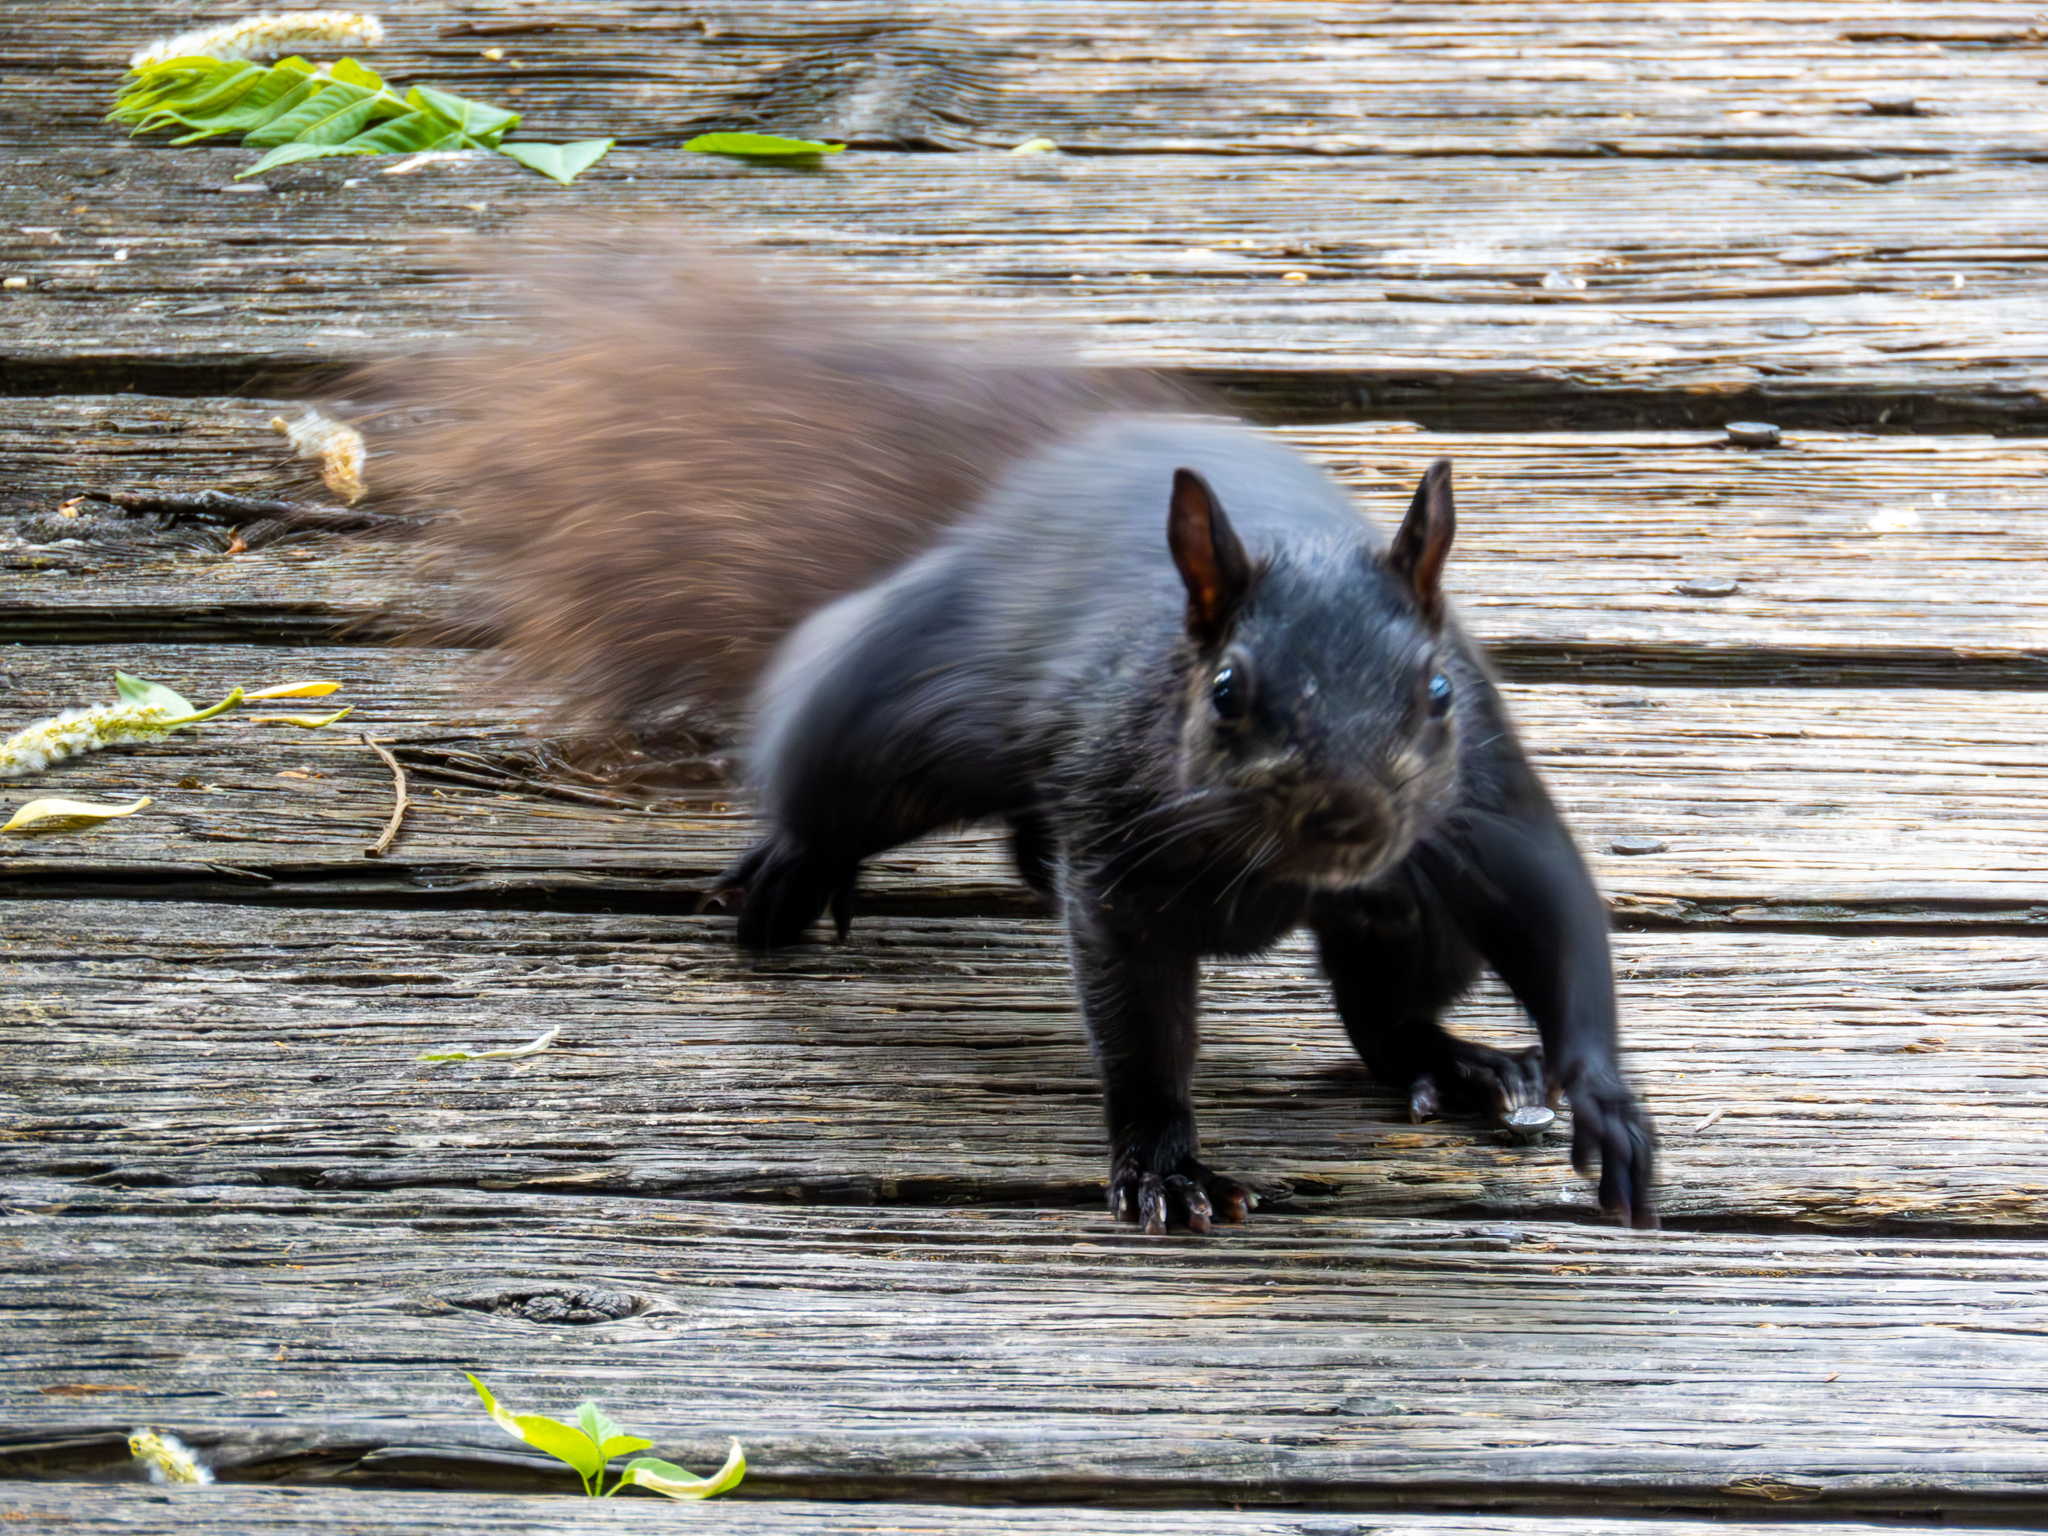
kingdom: Animalia
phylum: Chordata
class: Mammalia
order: Rodentia
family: Sciuridae
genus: Sciurus
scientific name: Sciurus carolinensis
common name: Eastern gray squirrel
